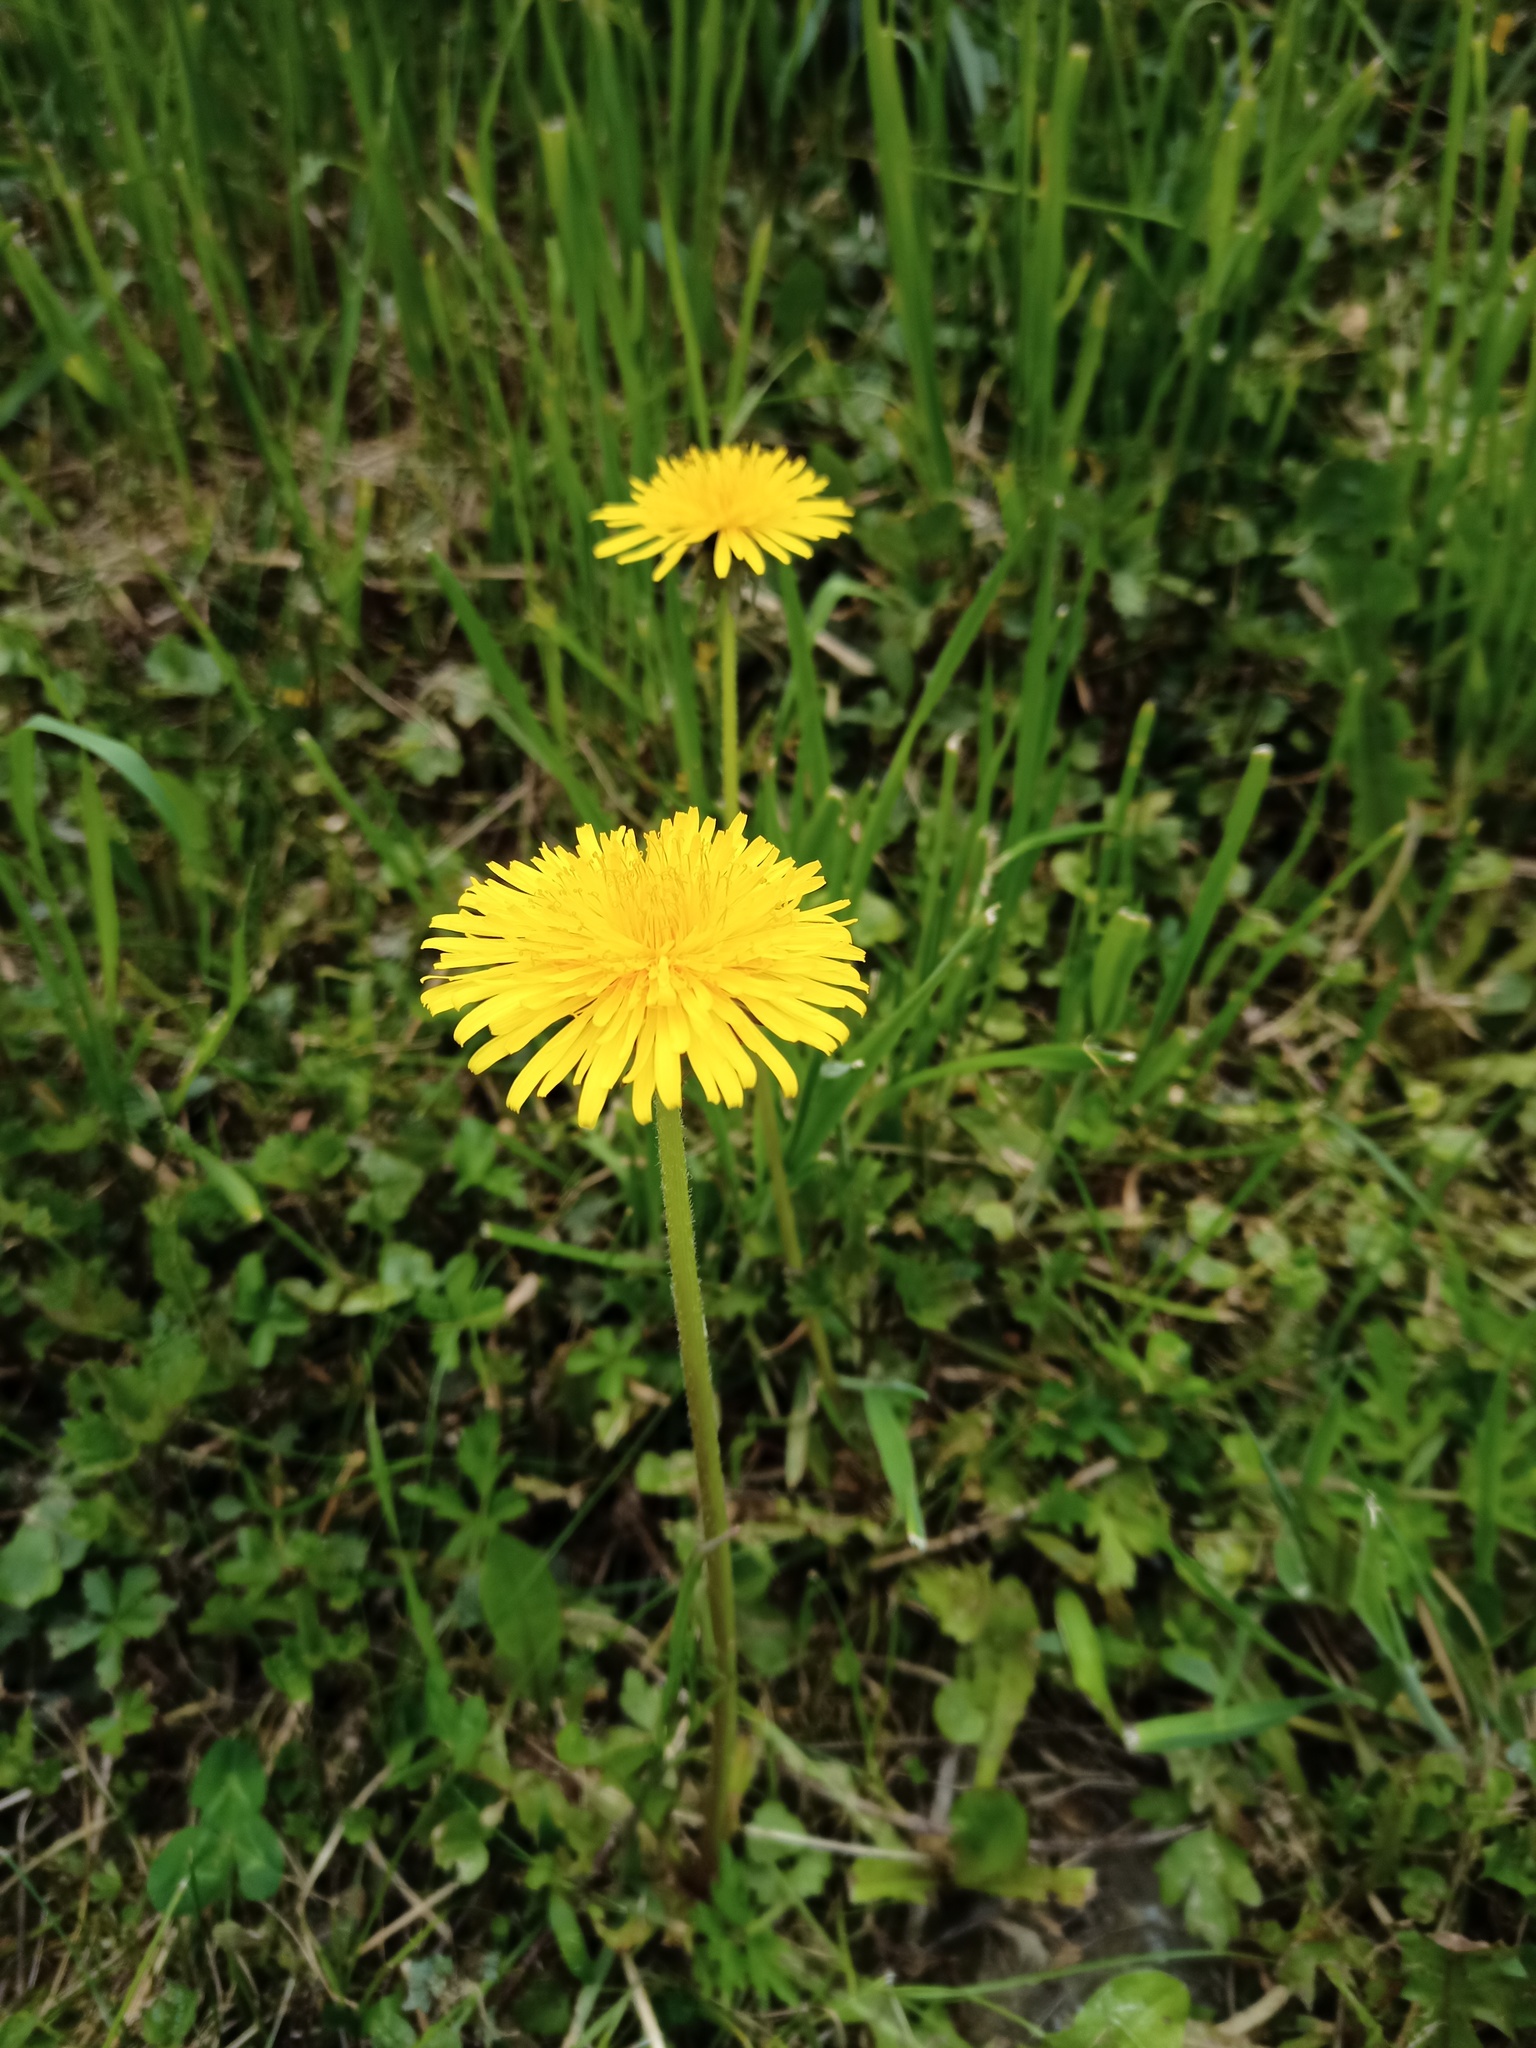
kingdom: Plantae
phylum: Tracheophyta
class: Magnoliopsida
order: Asterales
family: Asteraceae
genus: Taraxacum
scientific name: Taraxacum officinale
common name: Common dandelion
